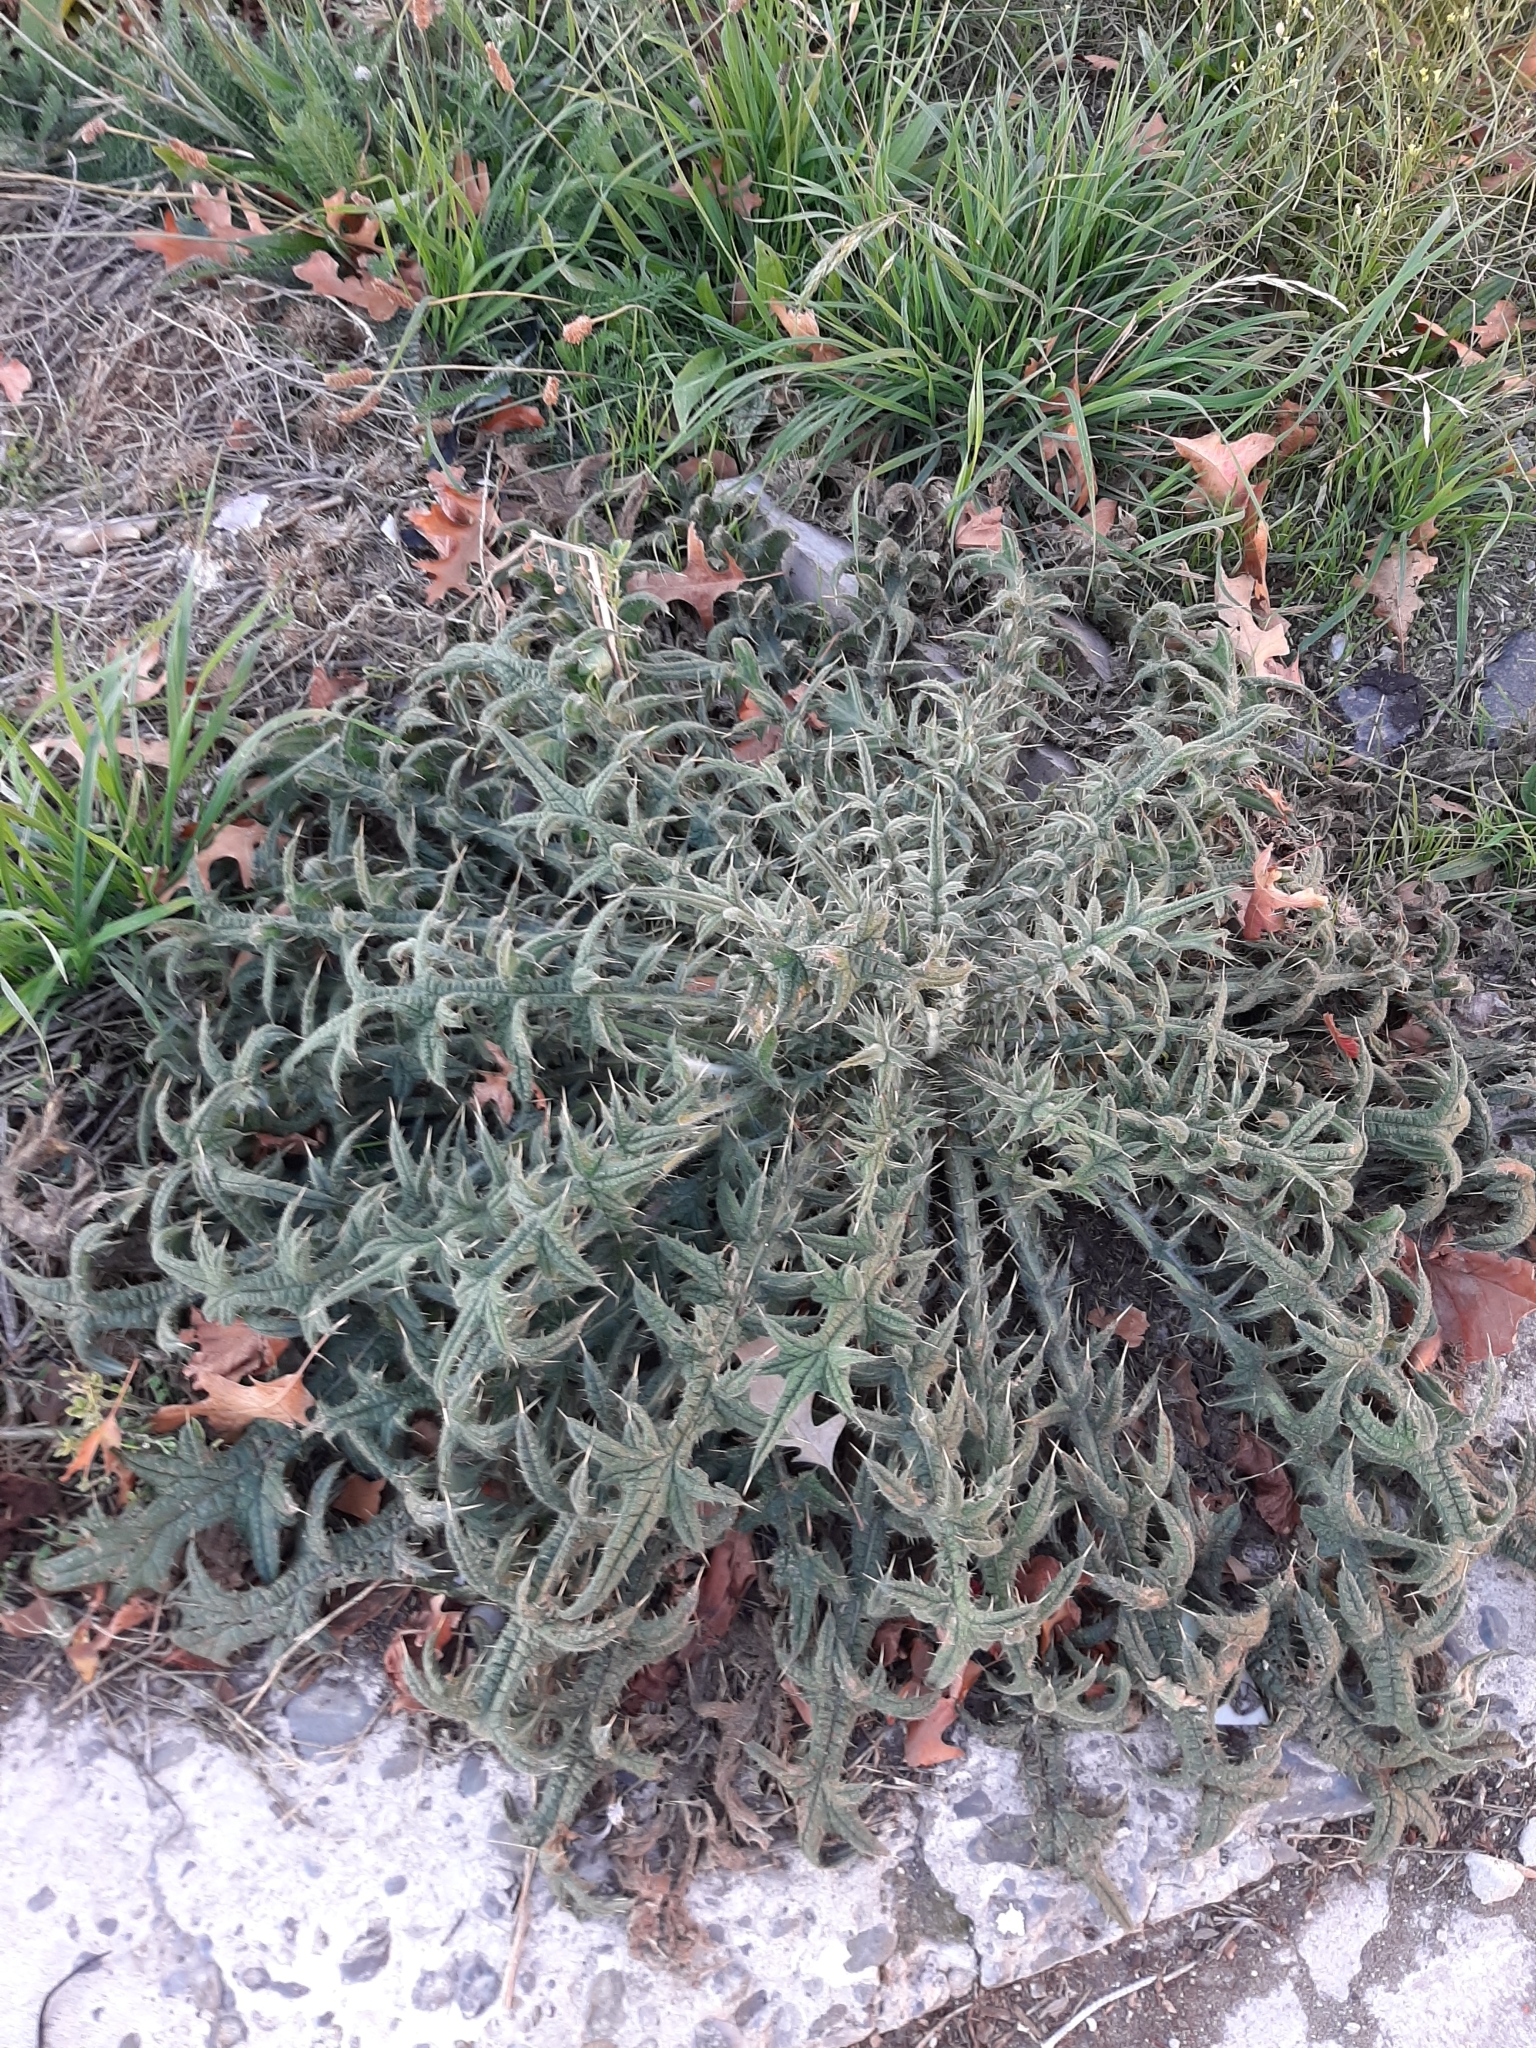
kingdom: Plantae
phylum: Tracheophyta
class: Magnoliopsida
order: Asterales
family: Asteraceae
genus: Cirsium
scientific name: Cirsium vulgare
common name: Bull thistle
